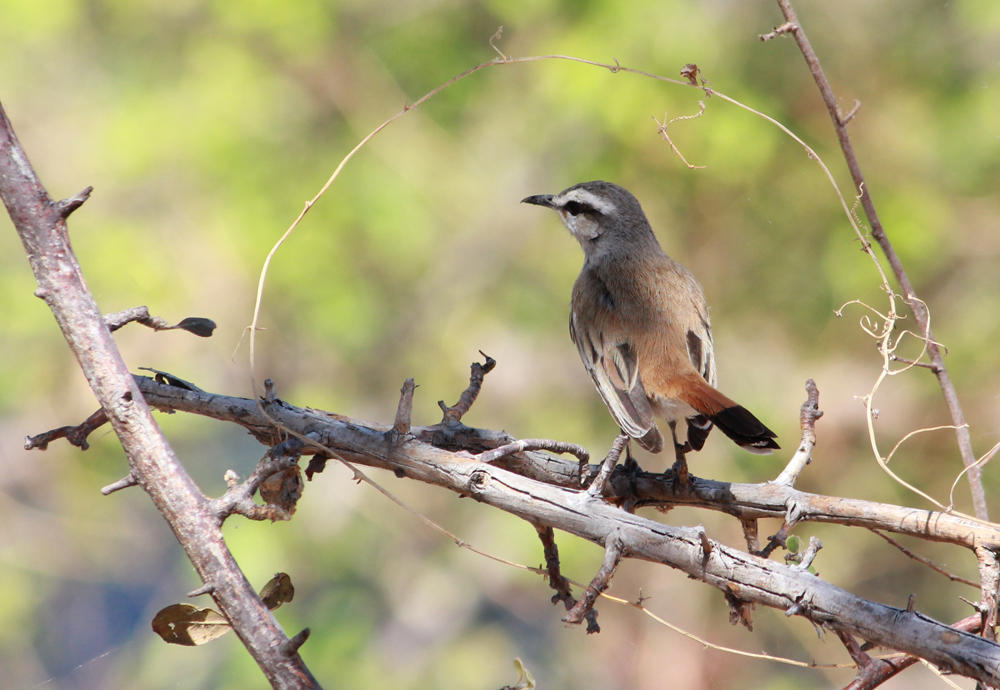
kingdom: Animalia
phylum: Chordata
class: Aves
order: Passeriformes
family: Muscicapidae
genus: Erythropygia
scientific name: Erythropygia paena
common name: Kalahari scrub robin
